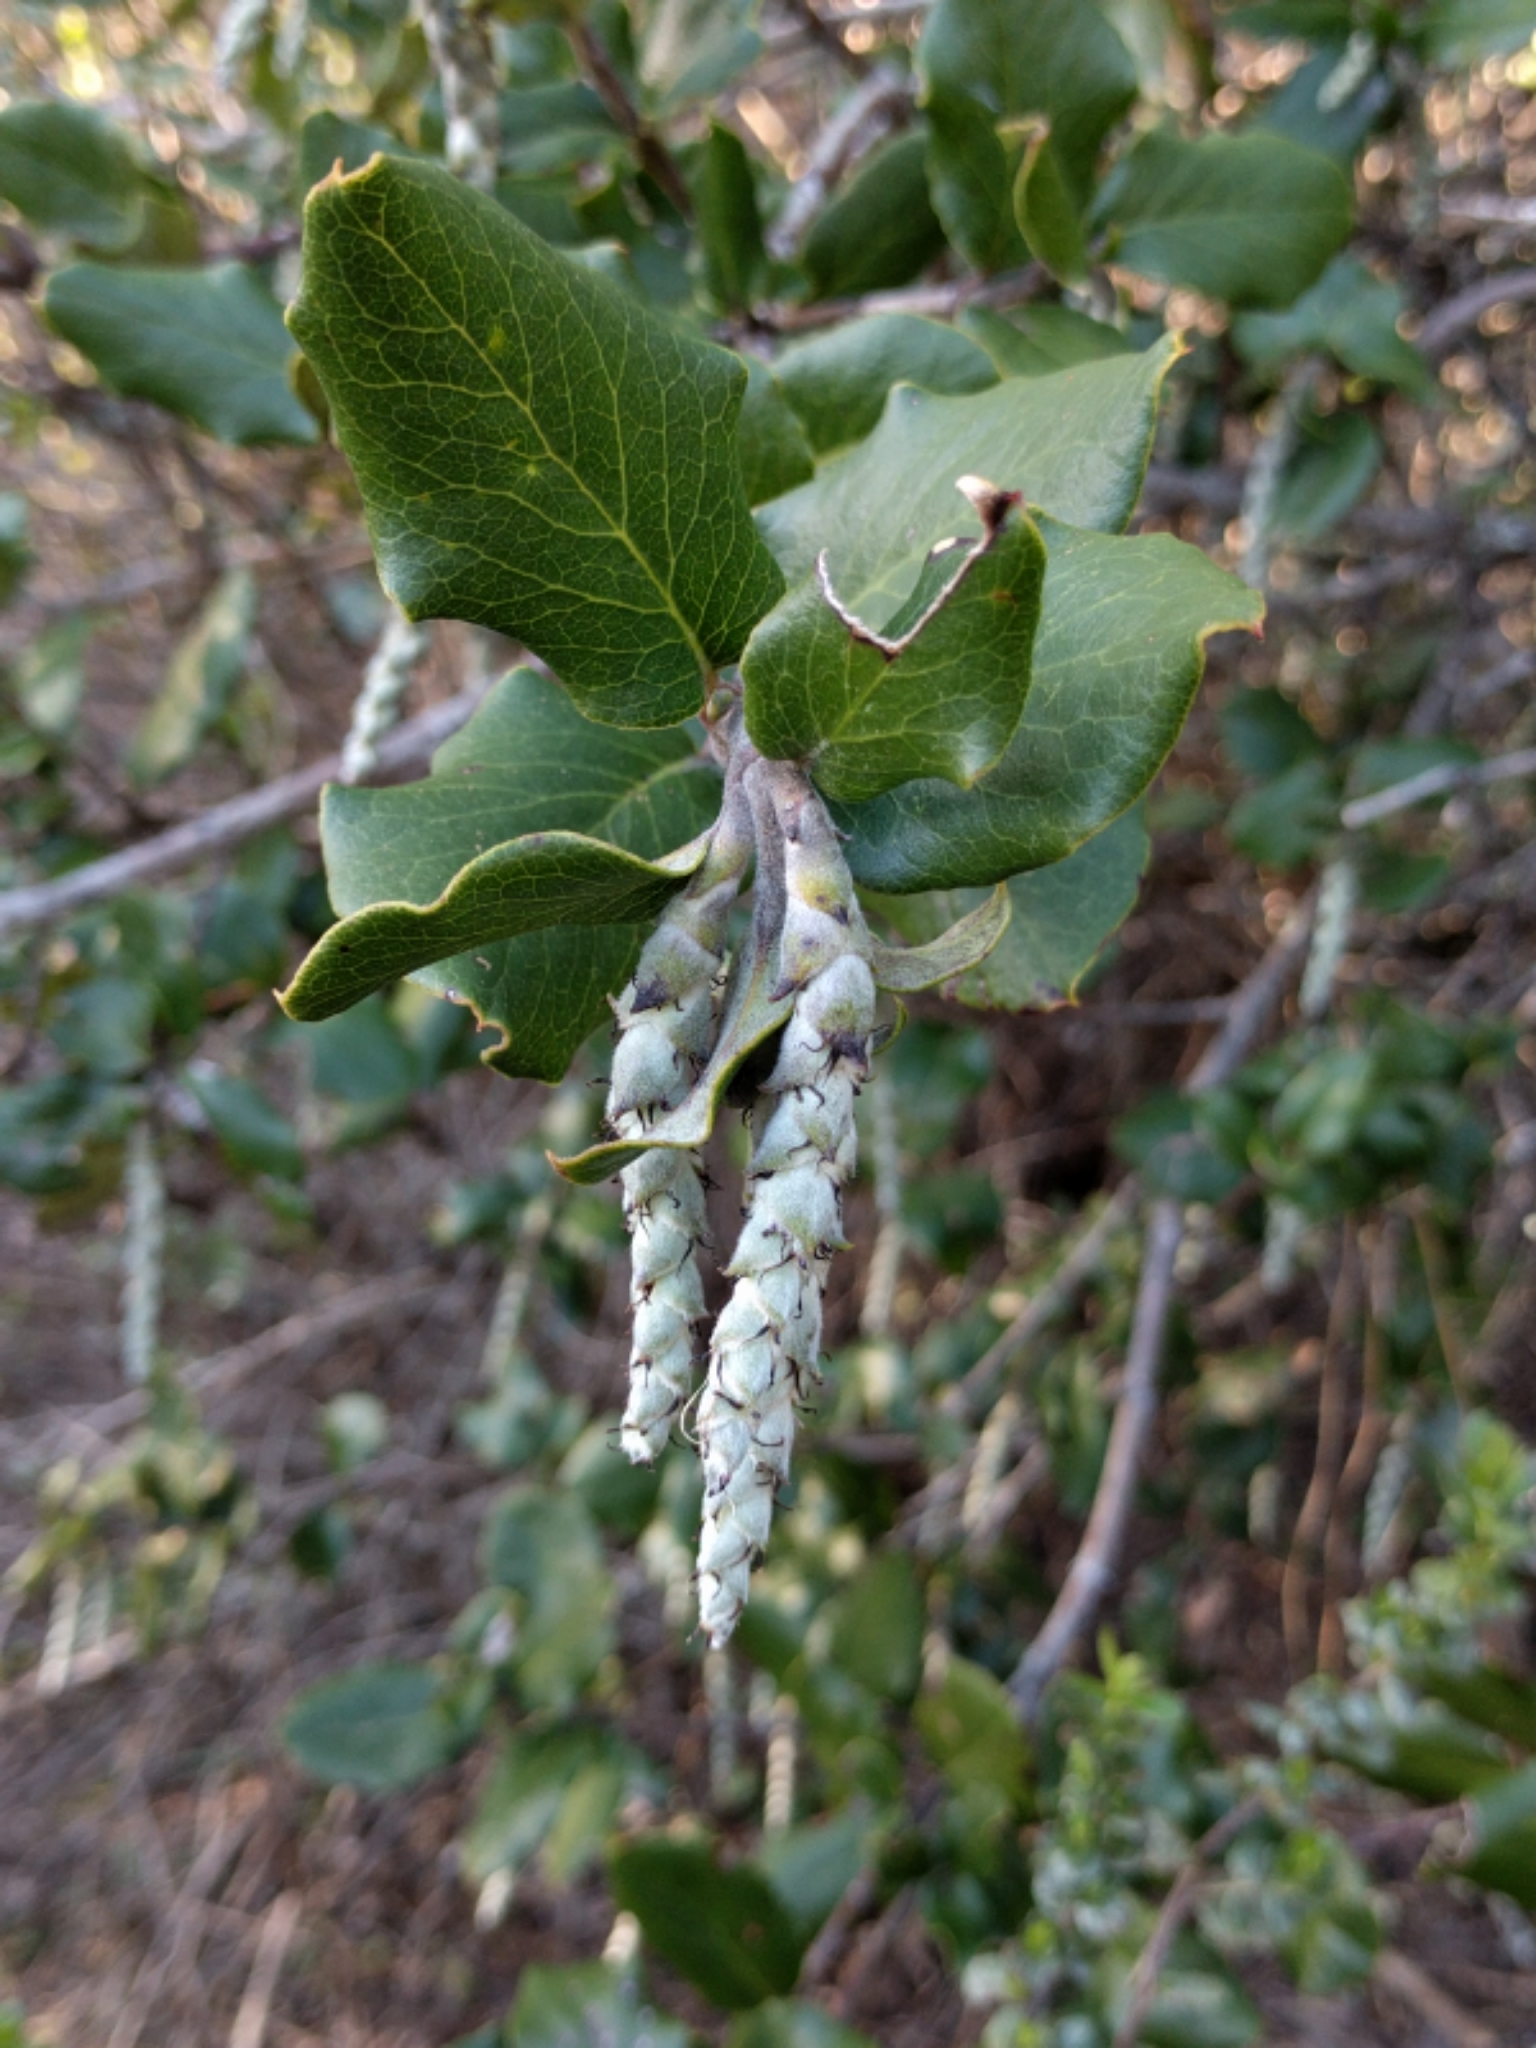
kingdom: Plantae
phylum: Tracheophyta
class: Magnoliopsida
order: Garryales
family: Garryaceae
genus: Garrya
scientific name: Garrya elliptica
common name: Silk-tassel
